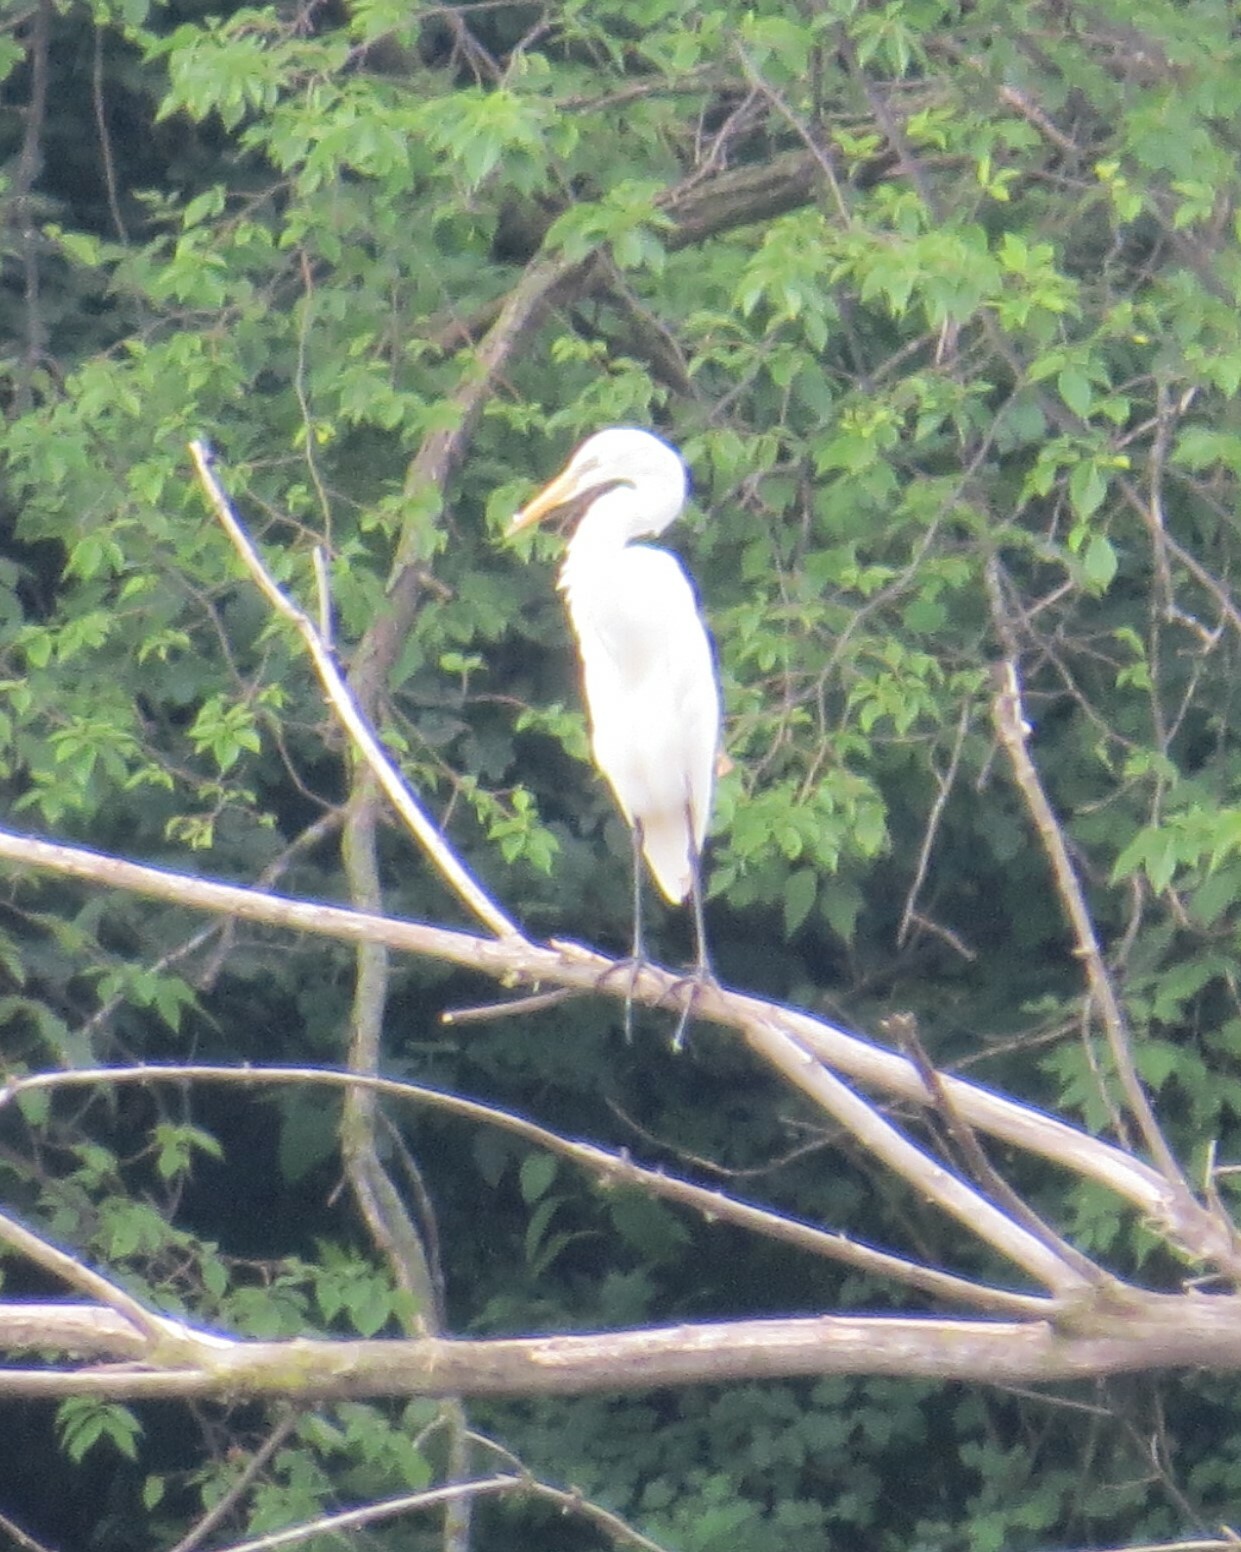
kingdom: Animalia
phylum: Chordata
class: Aves
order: Pelecaniformes
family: Ardeidae
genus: Ardea
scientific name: Ardea alba
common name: Great egret
